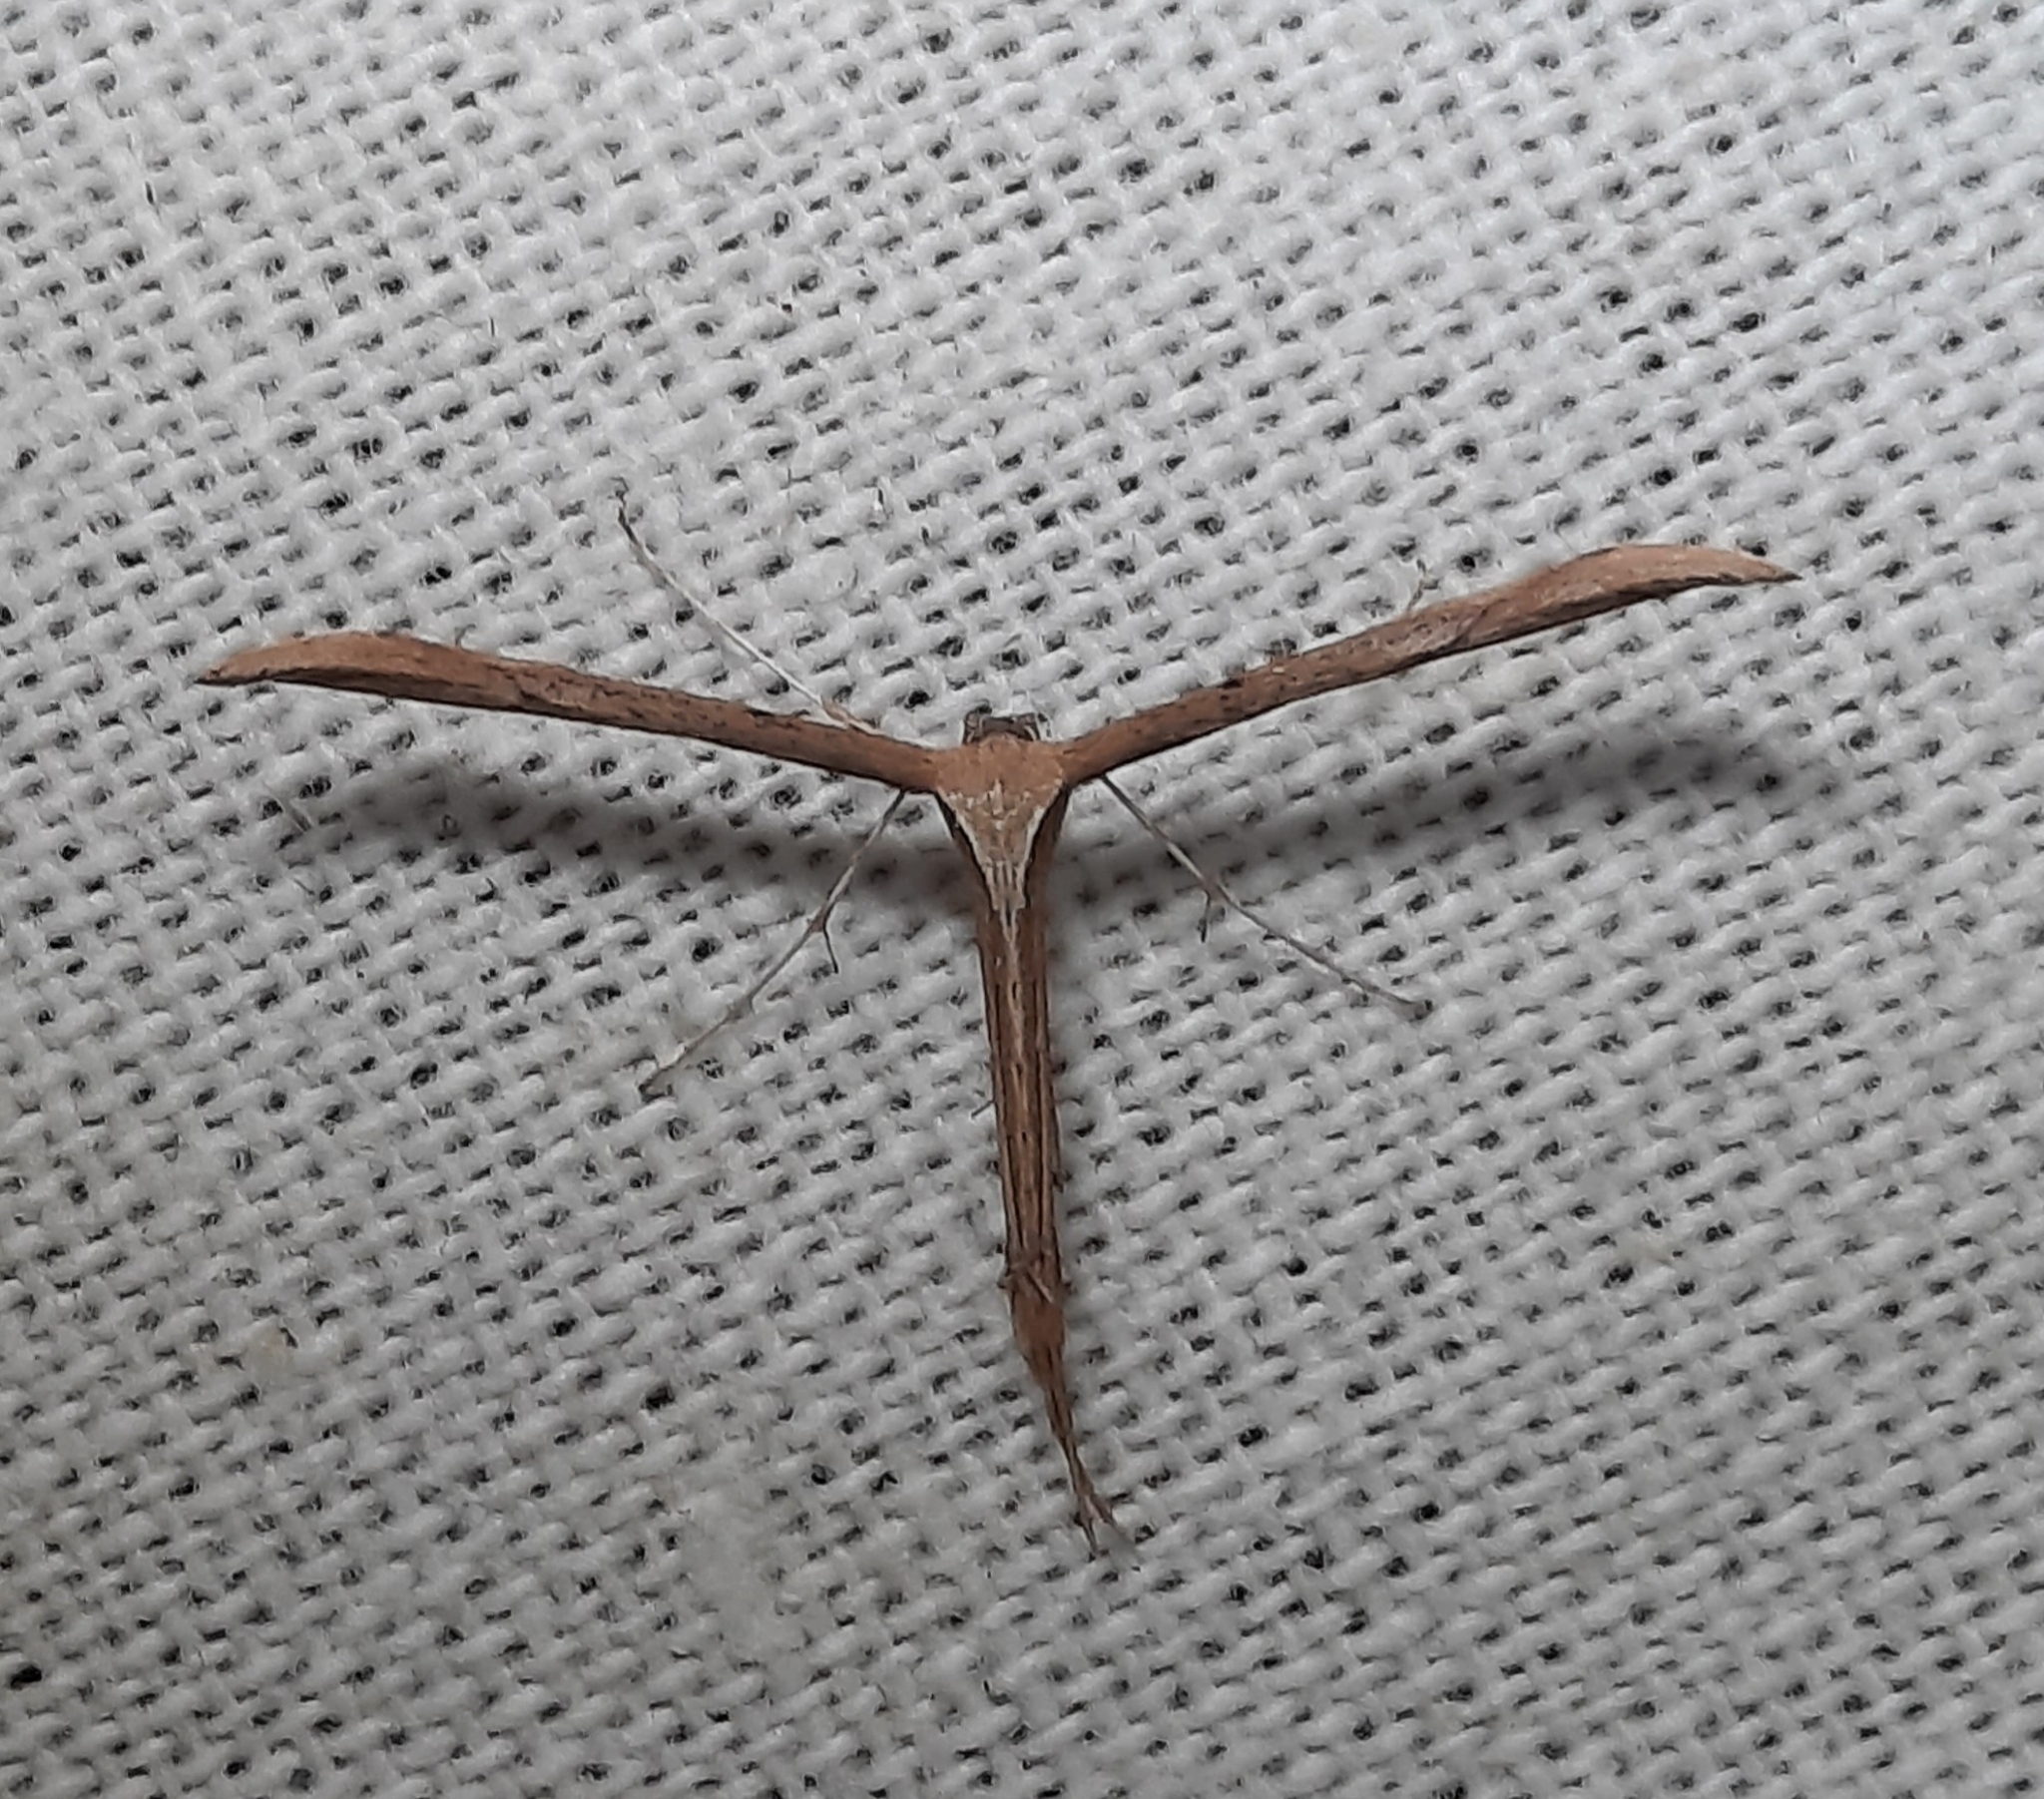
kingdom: Animalia
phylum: Arthropoda
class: Insecta
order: Lepidoptera
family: Pterophoridae
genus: Emmelina
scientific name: Emmelina monodactyla
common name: Common plume
